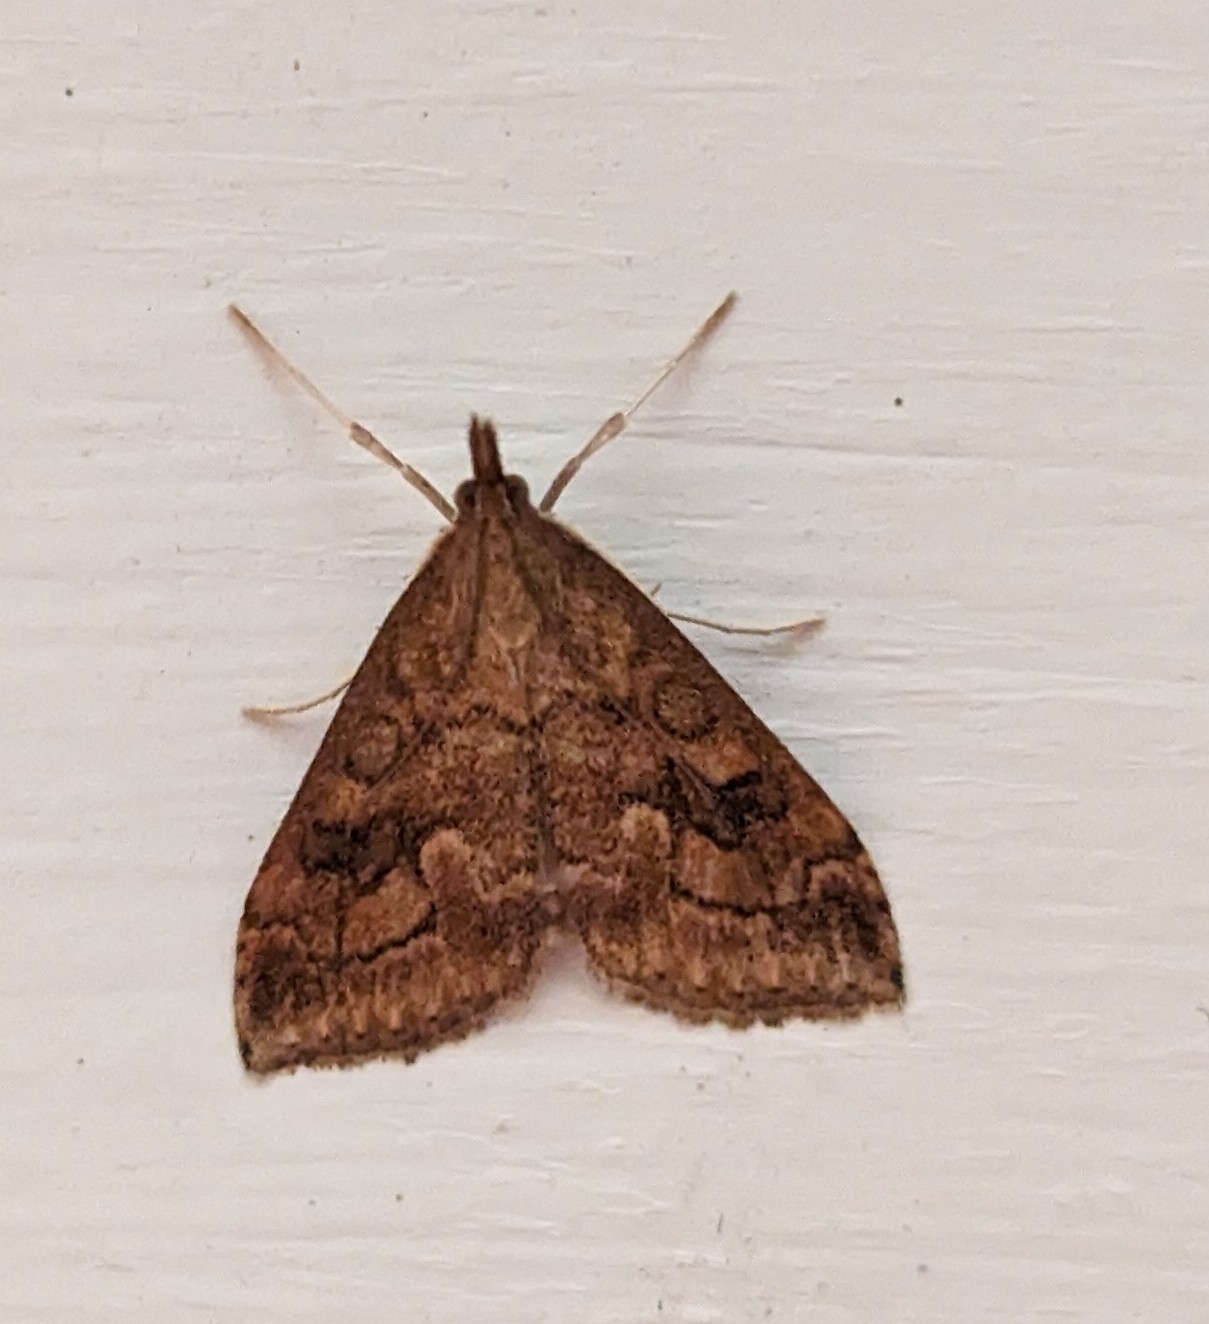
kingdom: Animalia
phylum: Arthropoda
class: Insecta
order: Lepidoptera
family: Crambidae
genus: Udea
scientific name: Udea profundalis
